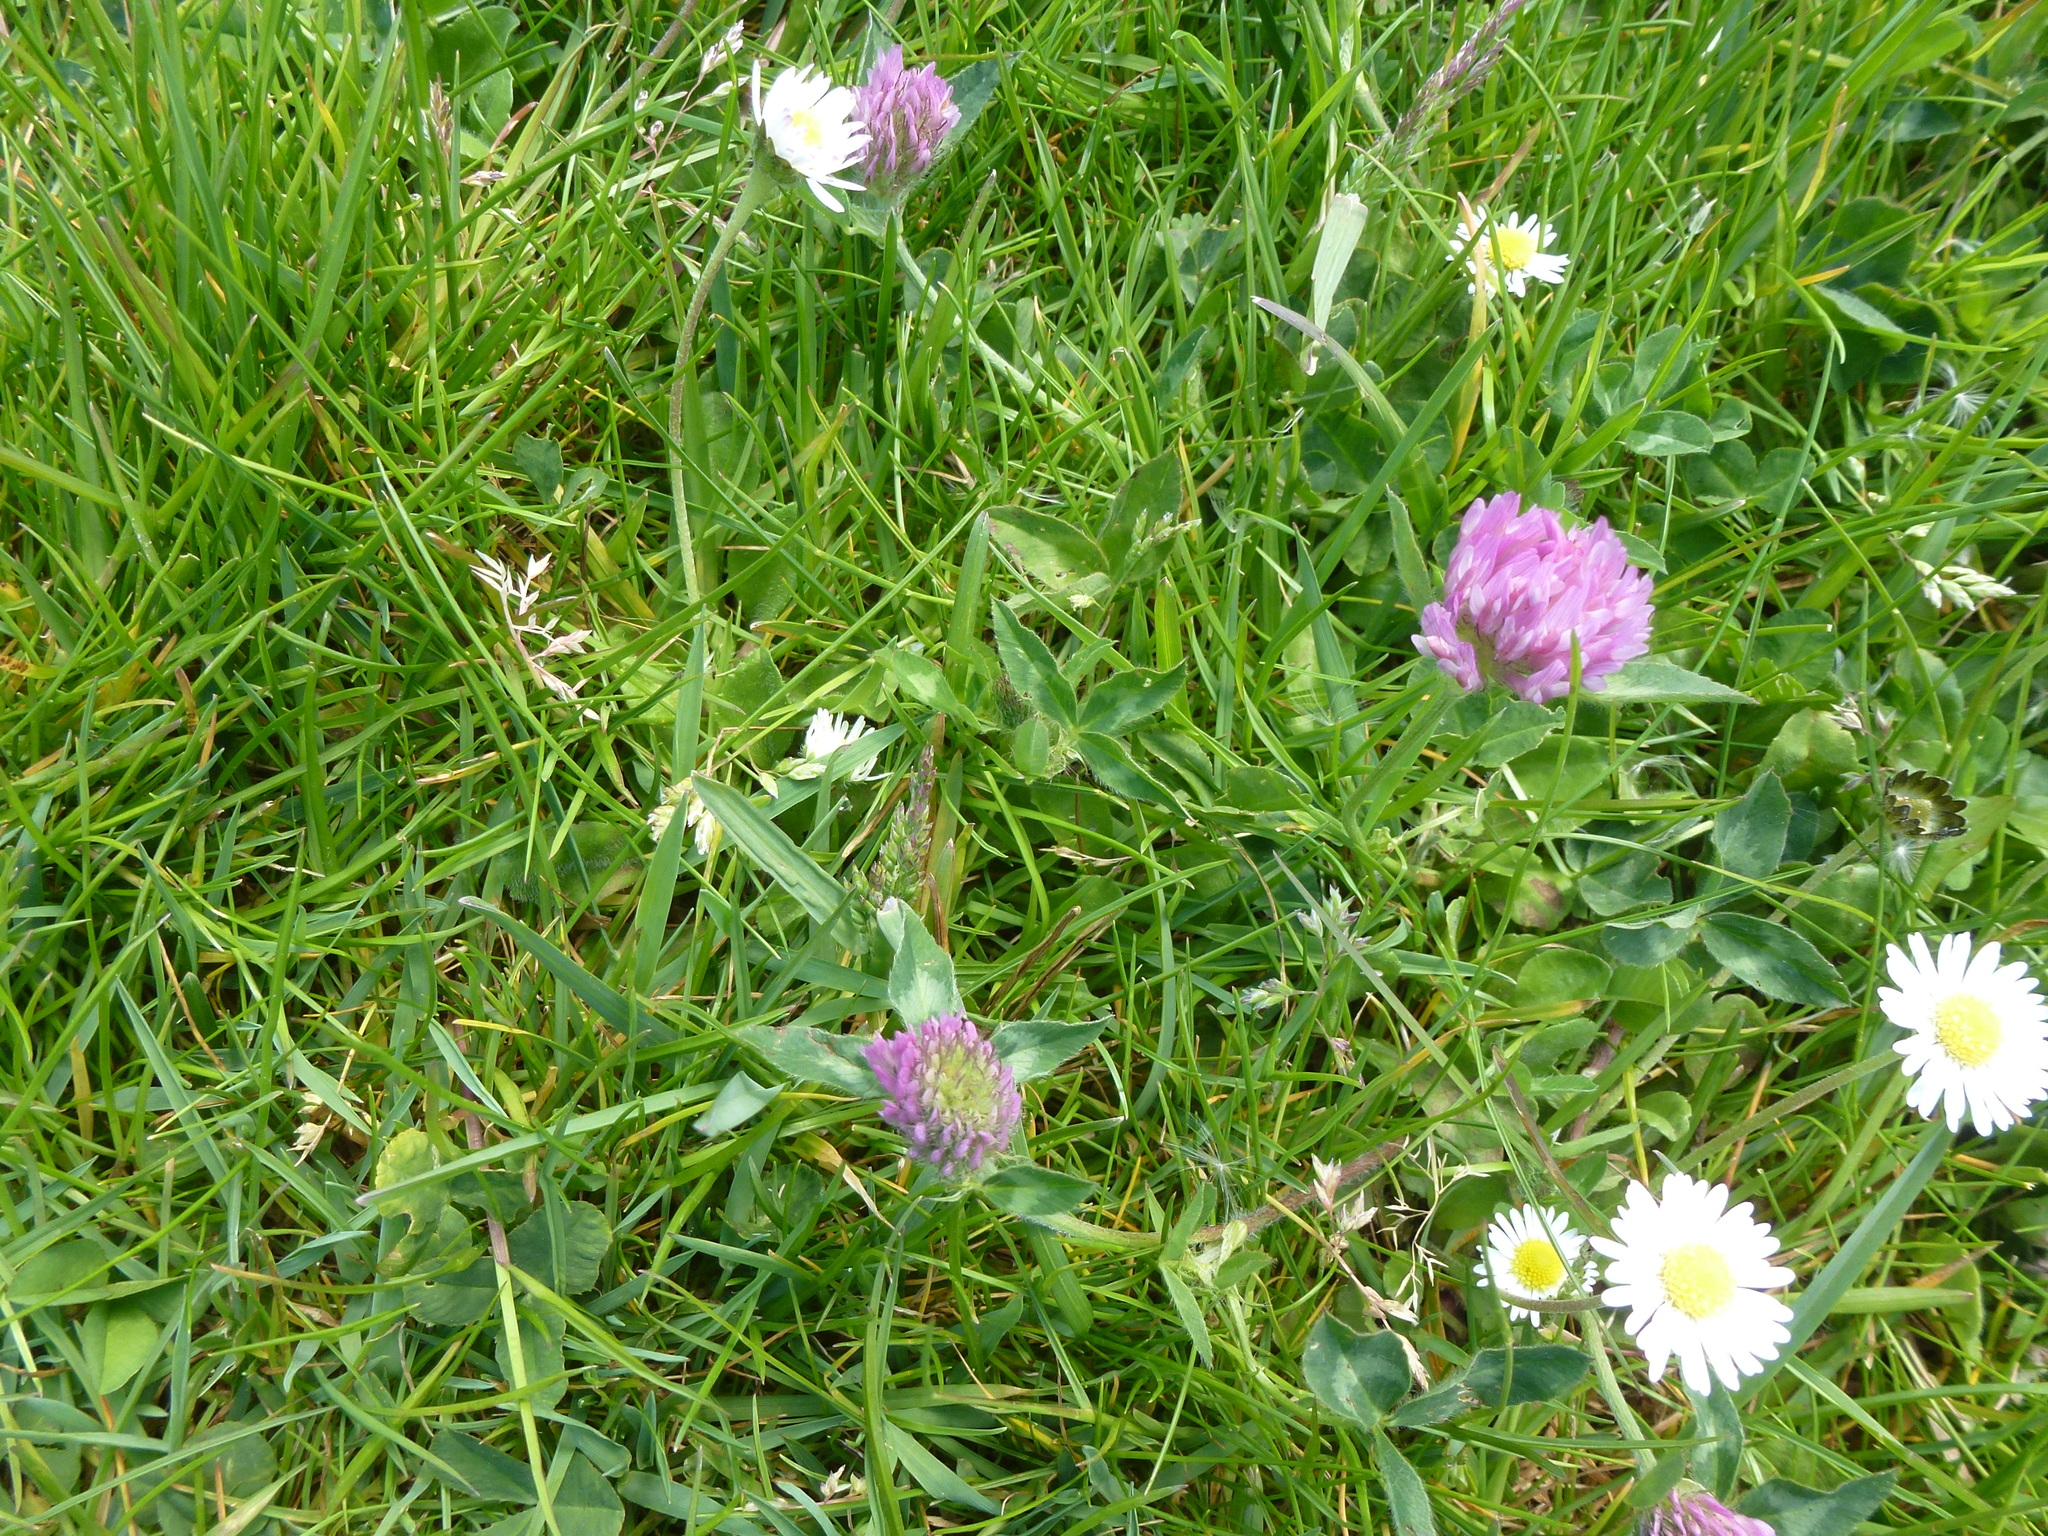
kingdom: Plantae
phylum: Tracheophyta
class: Magnoliopsida
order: Fabales
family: Fabaceae
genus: Trifolium
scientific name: Trifolium pratense
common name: Red clover
